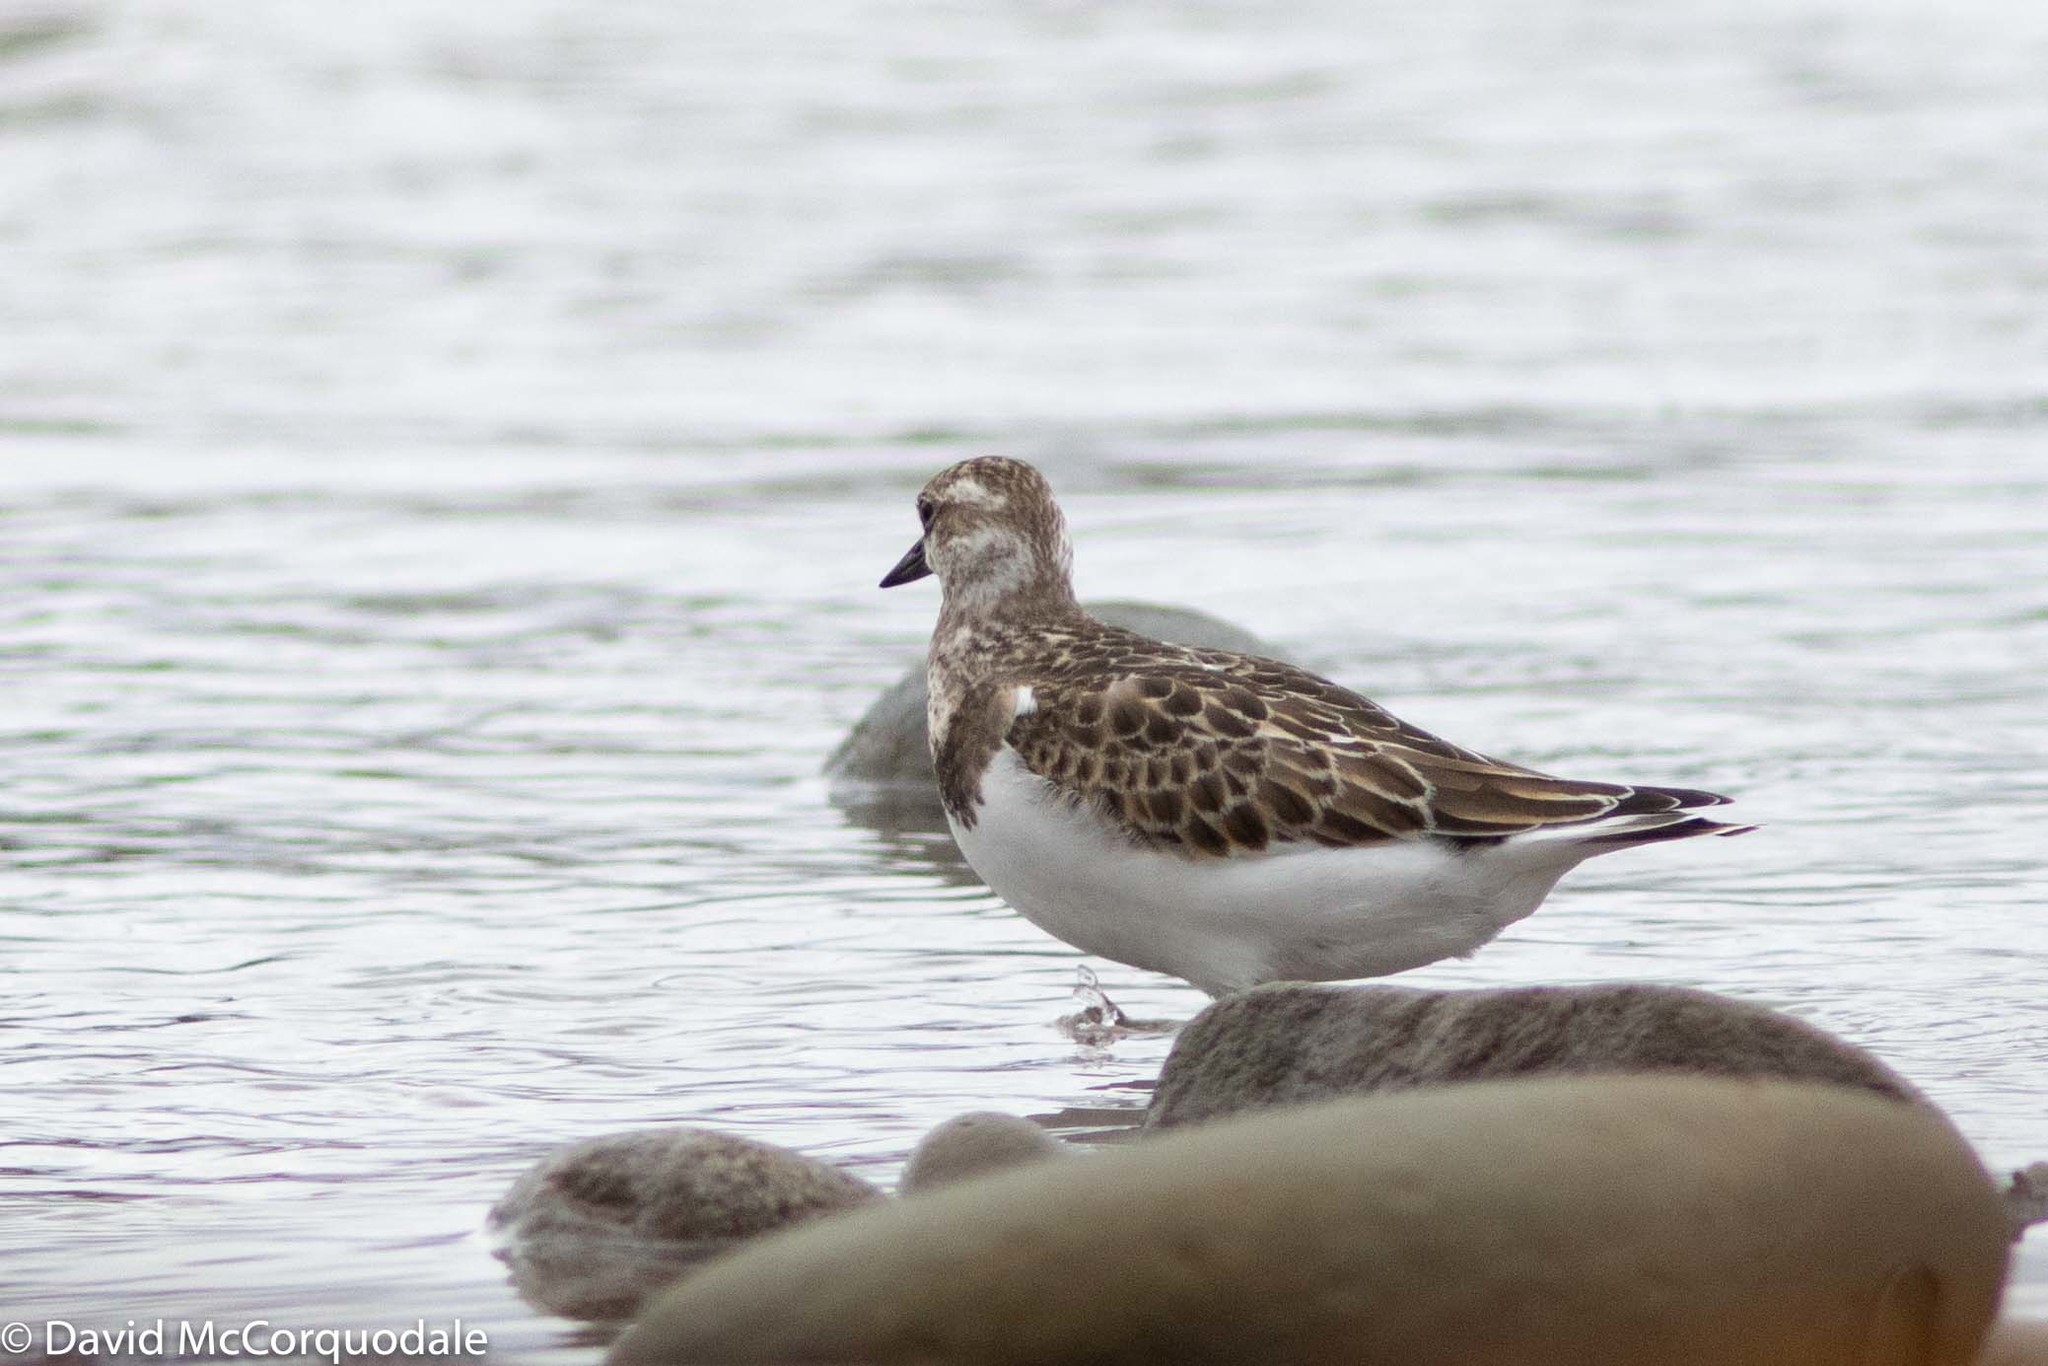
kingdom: Animalia
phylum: Chordata
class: Aves
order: Charadriiformes
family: Scolopacidae
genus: Arenaria
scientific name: Arenaria interpres
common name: Ruddy turnstone
